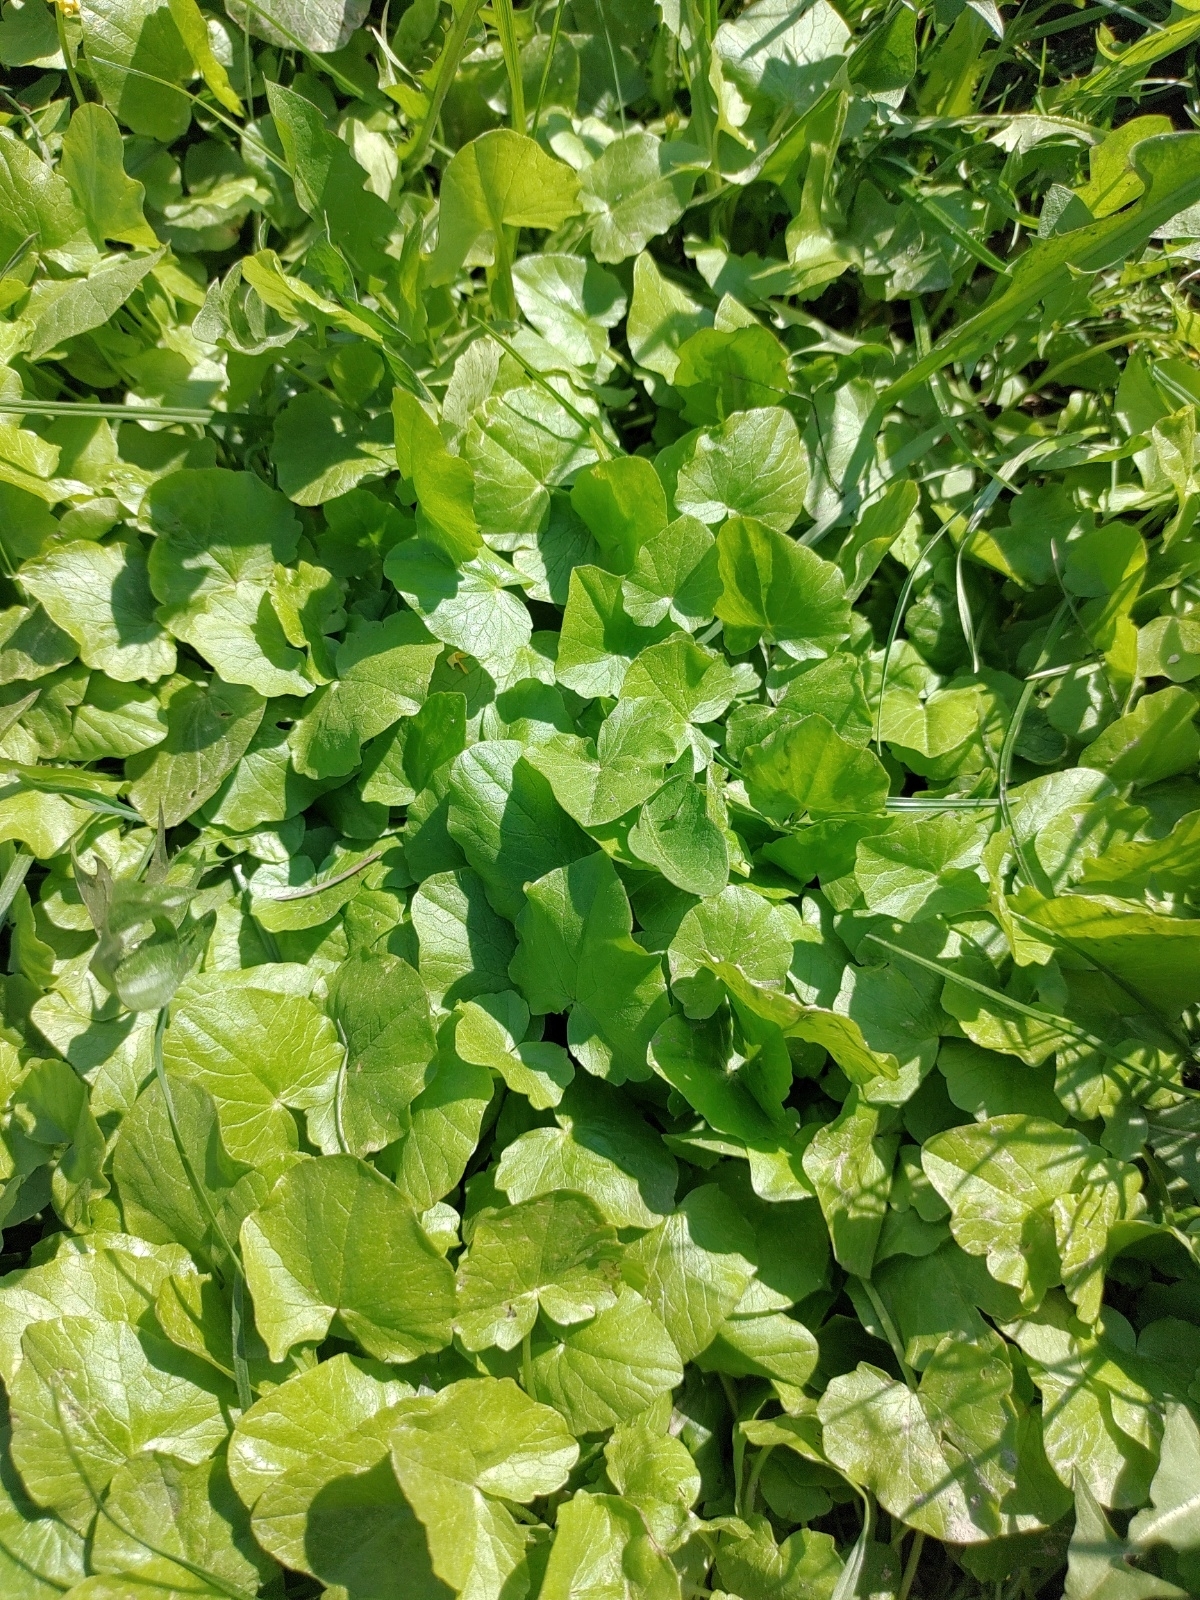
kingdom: Plantae
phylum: Tracheophyta
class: Magnoliopsida
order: Ranunculales
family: Ranunculaceae
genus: Ficaria
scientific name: Ficaria verna
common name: Lesser celandine
